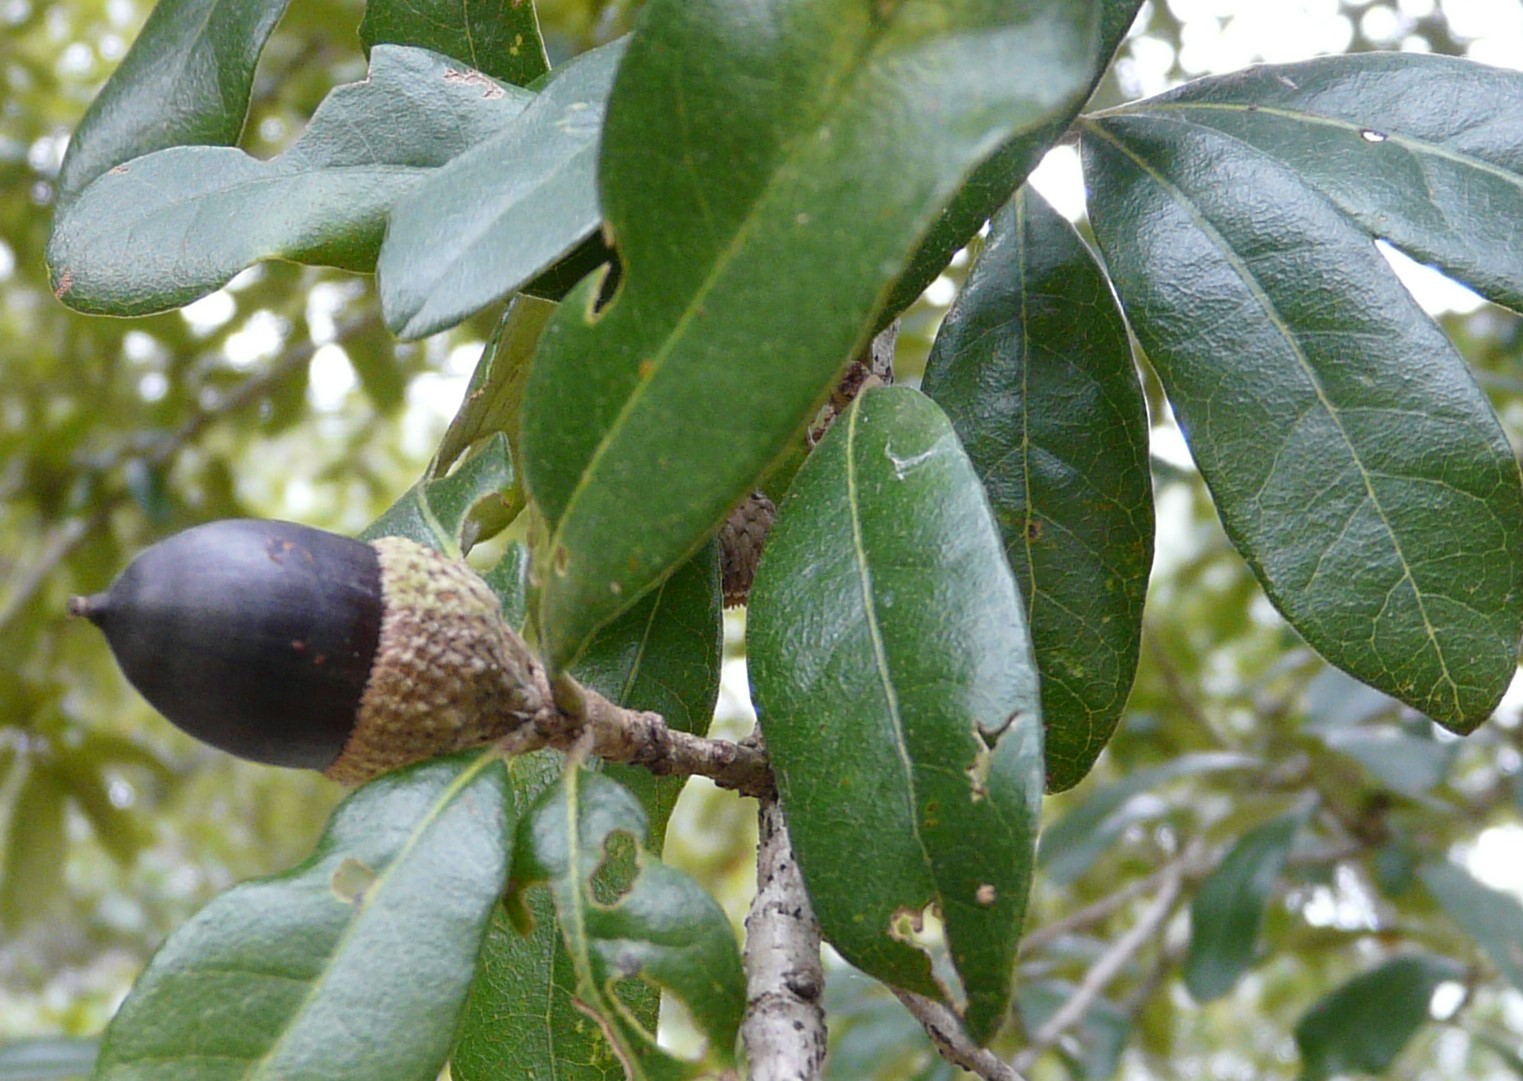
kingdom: Plantae
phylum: Tracheophyta
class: Magnoliopsida
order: Fagales
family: Fagaceae
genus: Quercus
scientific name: Quercus virginiana
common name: Southern live oak
